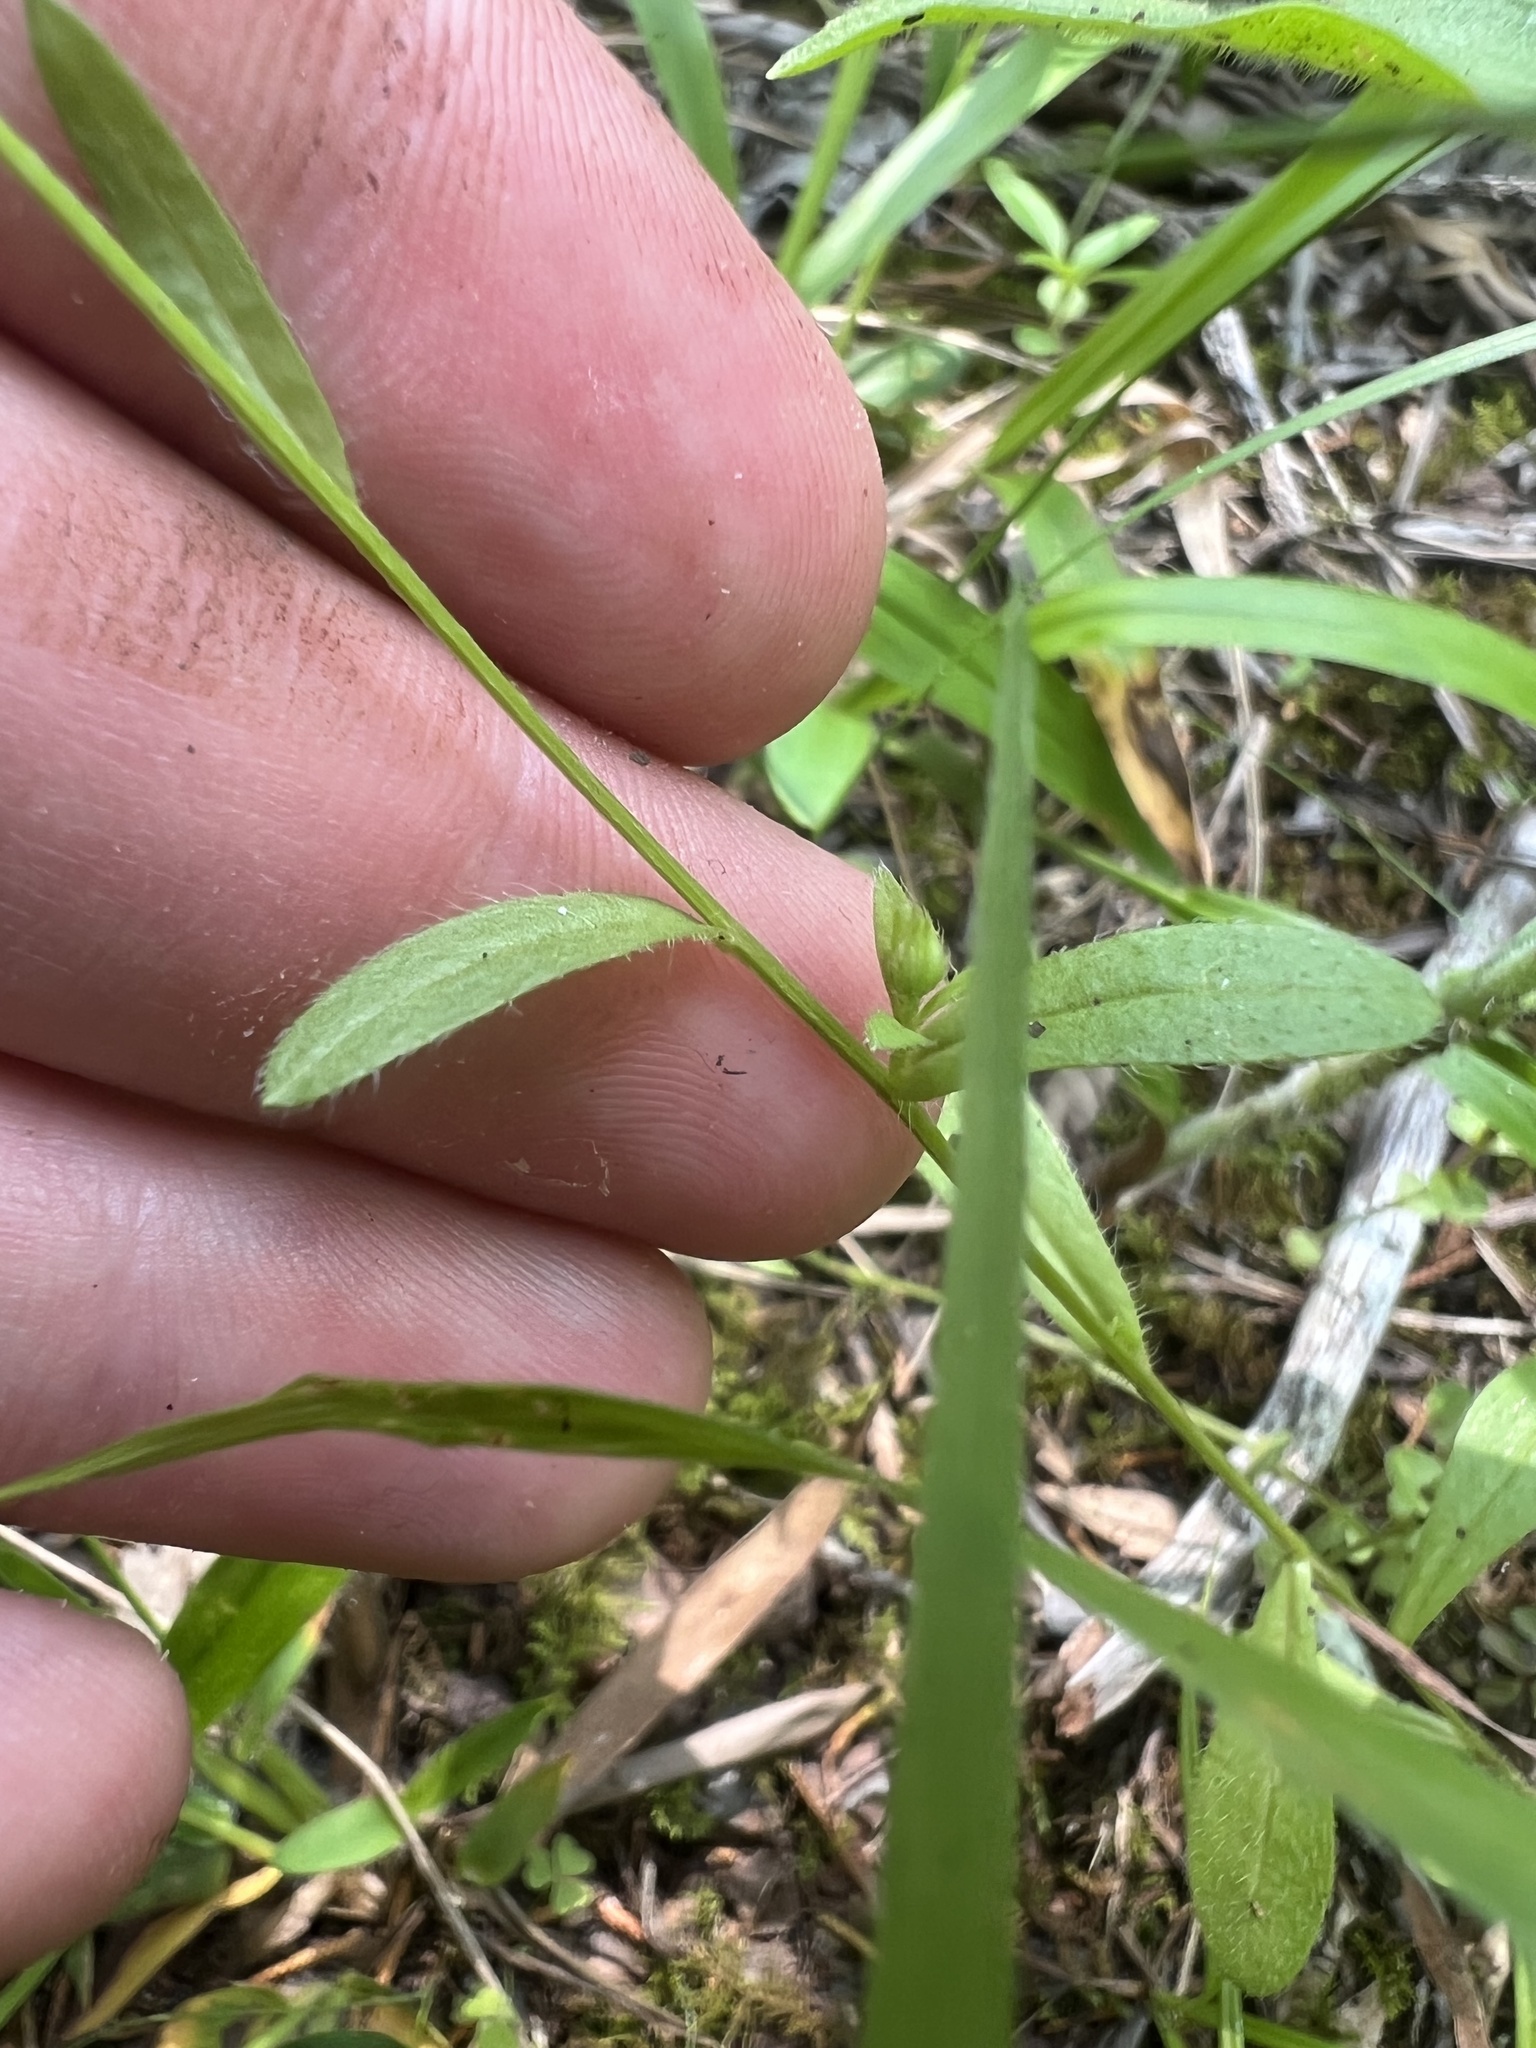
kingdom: Plantae
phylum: Tracheophyta
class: Magnoliopsida
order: Asterales
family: Asteraceae
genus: Astranthium
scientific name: Astranthium integrifolium
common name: Western daisy
